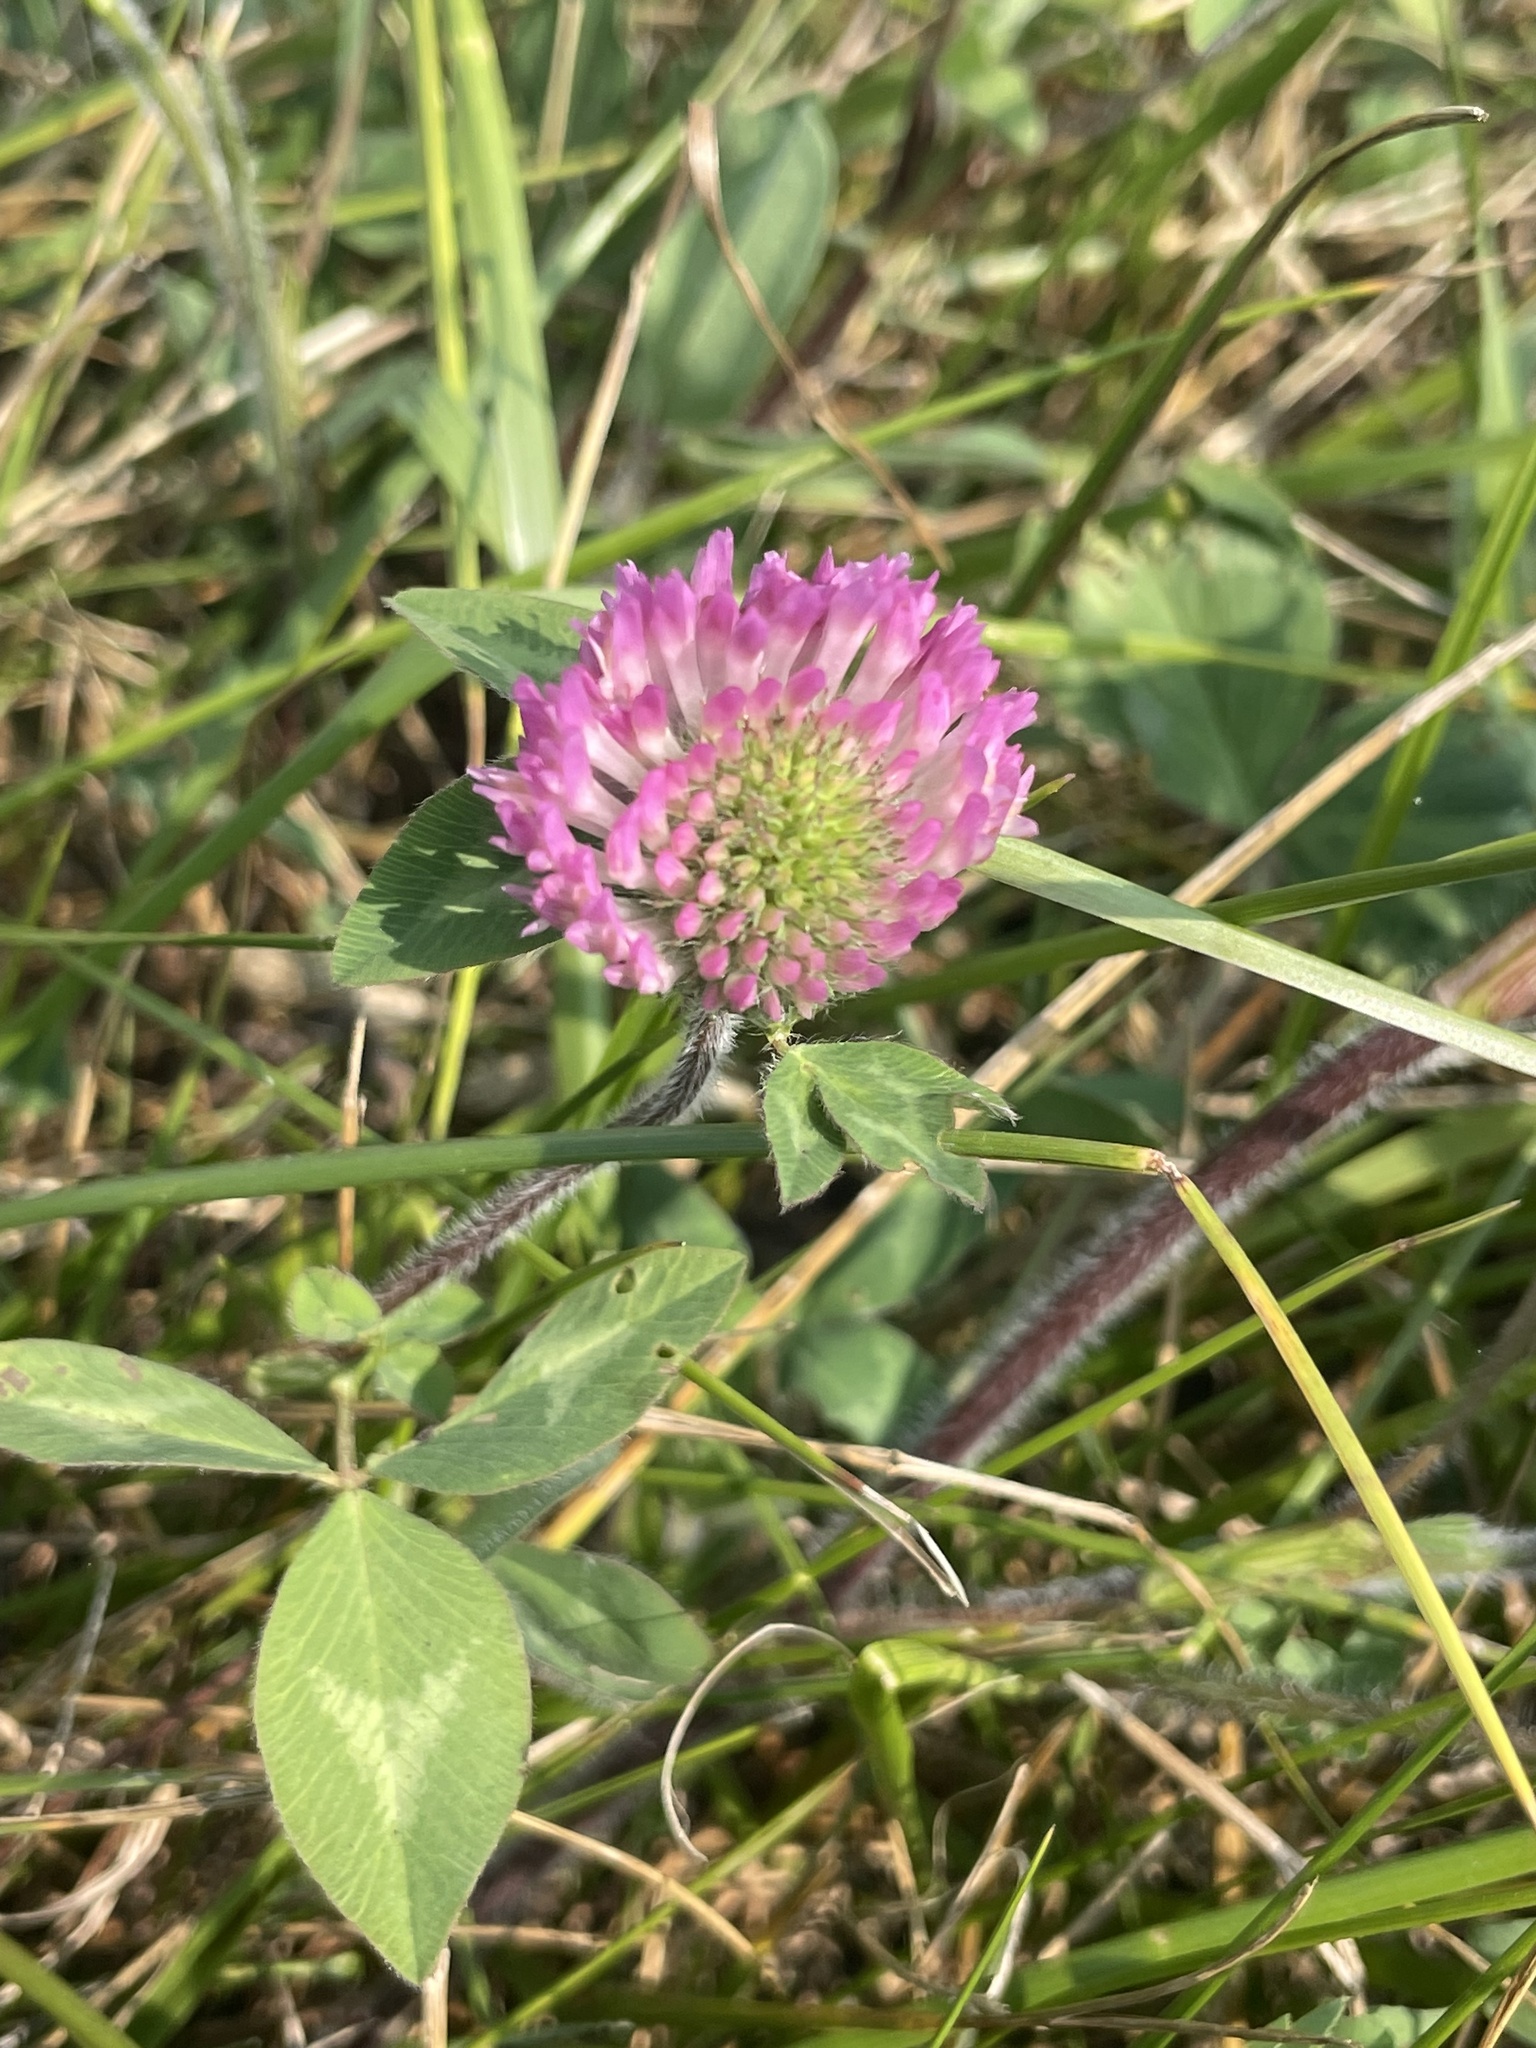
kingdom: Plantae
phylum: Tracheophyta
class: Magnoliopsida
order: Fabales
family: Fabaceae
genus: Trifolium
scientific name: Trifolium pratense
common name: Red clover
